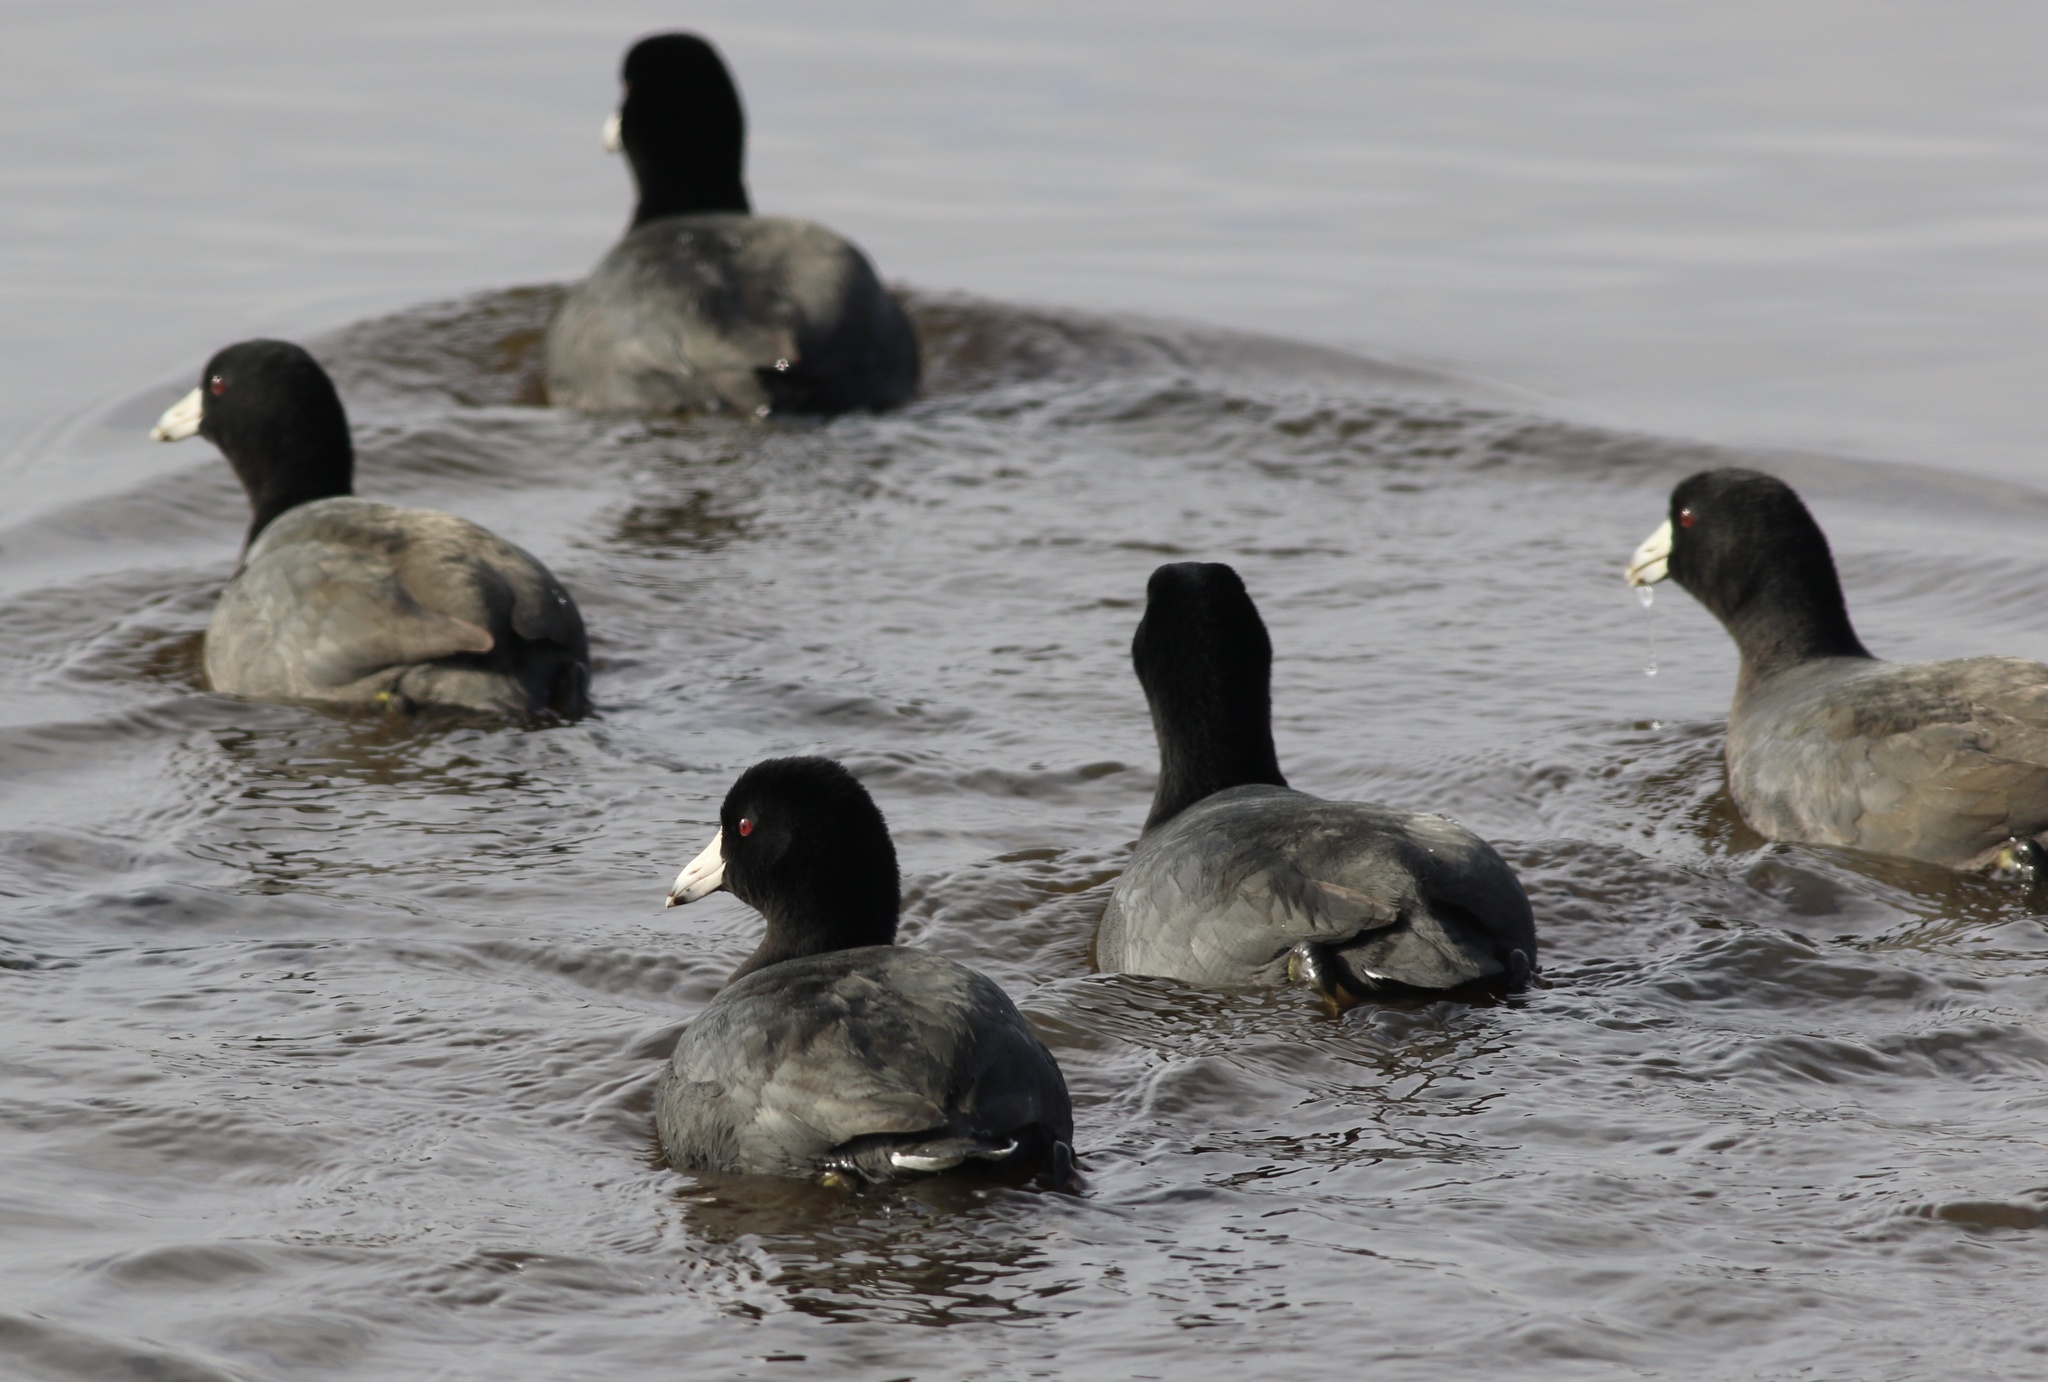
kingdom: Animalia
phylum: Chordata
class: Aves
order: Gruiformes
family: Rallidae
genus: Fulica
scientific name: Fulica americana
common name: American coot
